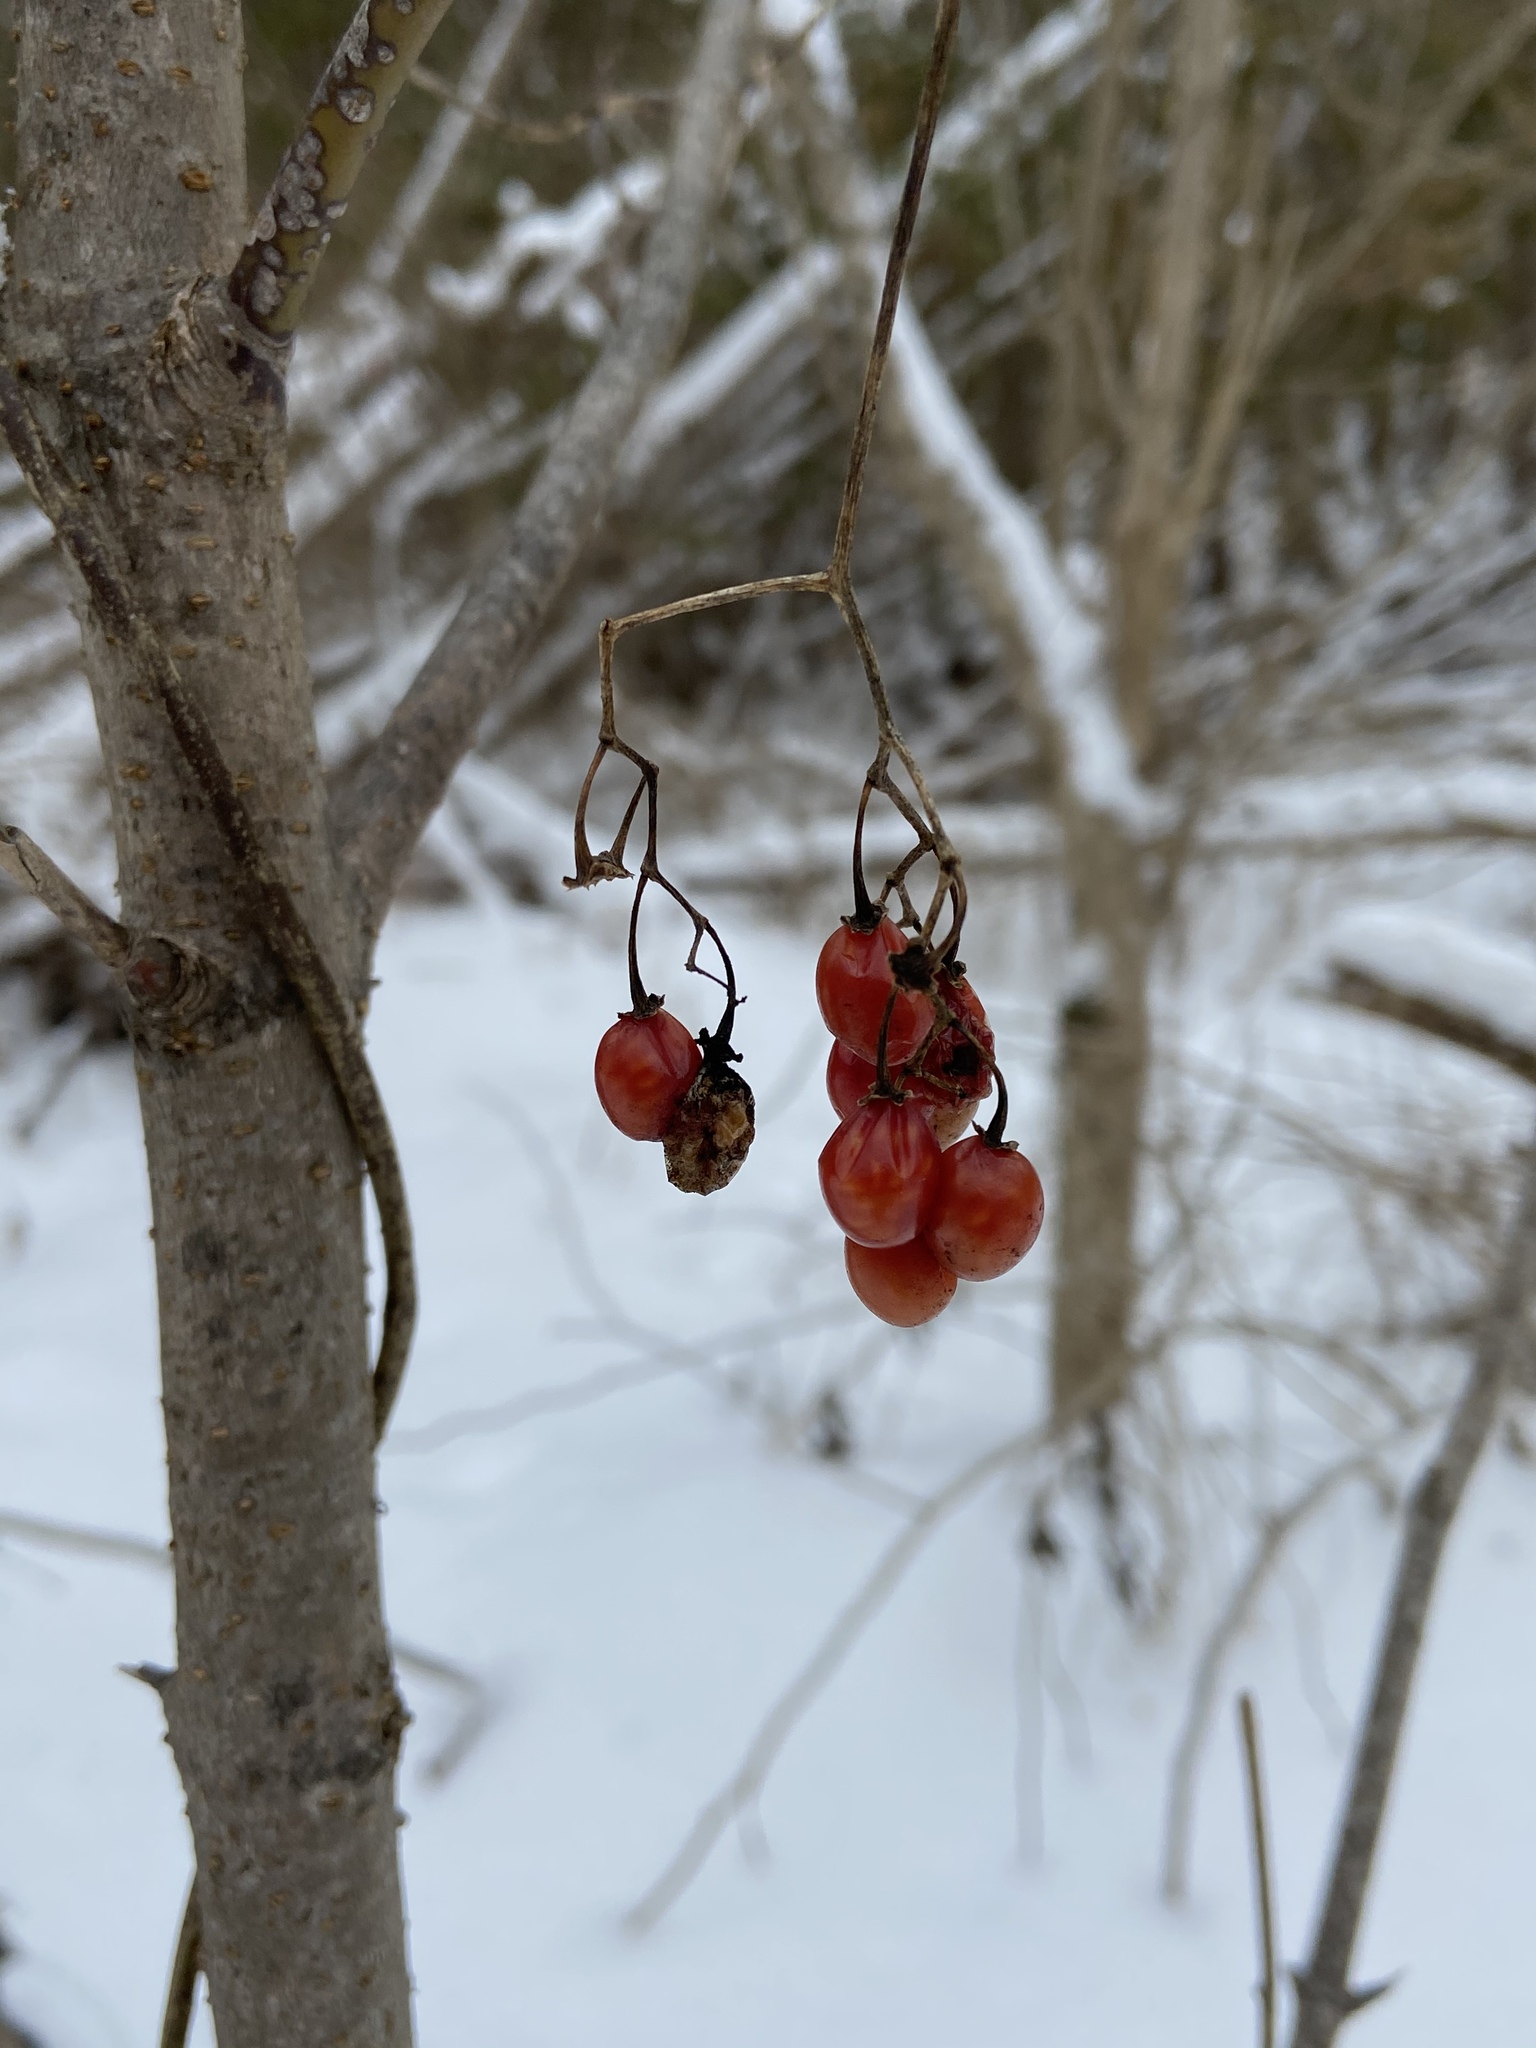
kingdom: Plantae
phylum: Tracheophyta
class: Magnoliopsida
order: Solanales
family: Solanaceae
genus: Solanum
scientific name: Solanum dulcamara
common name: Climbing nightshade
